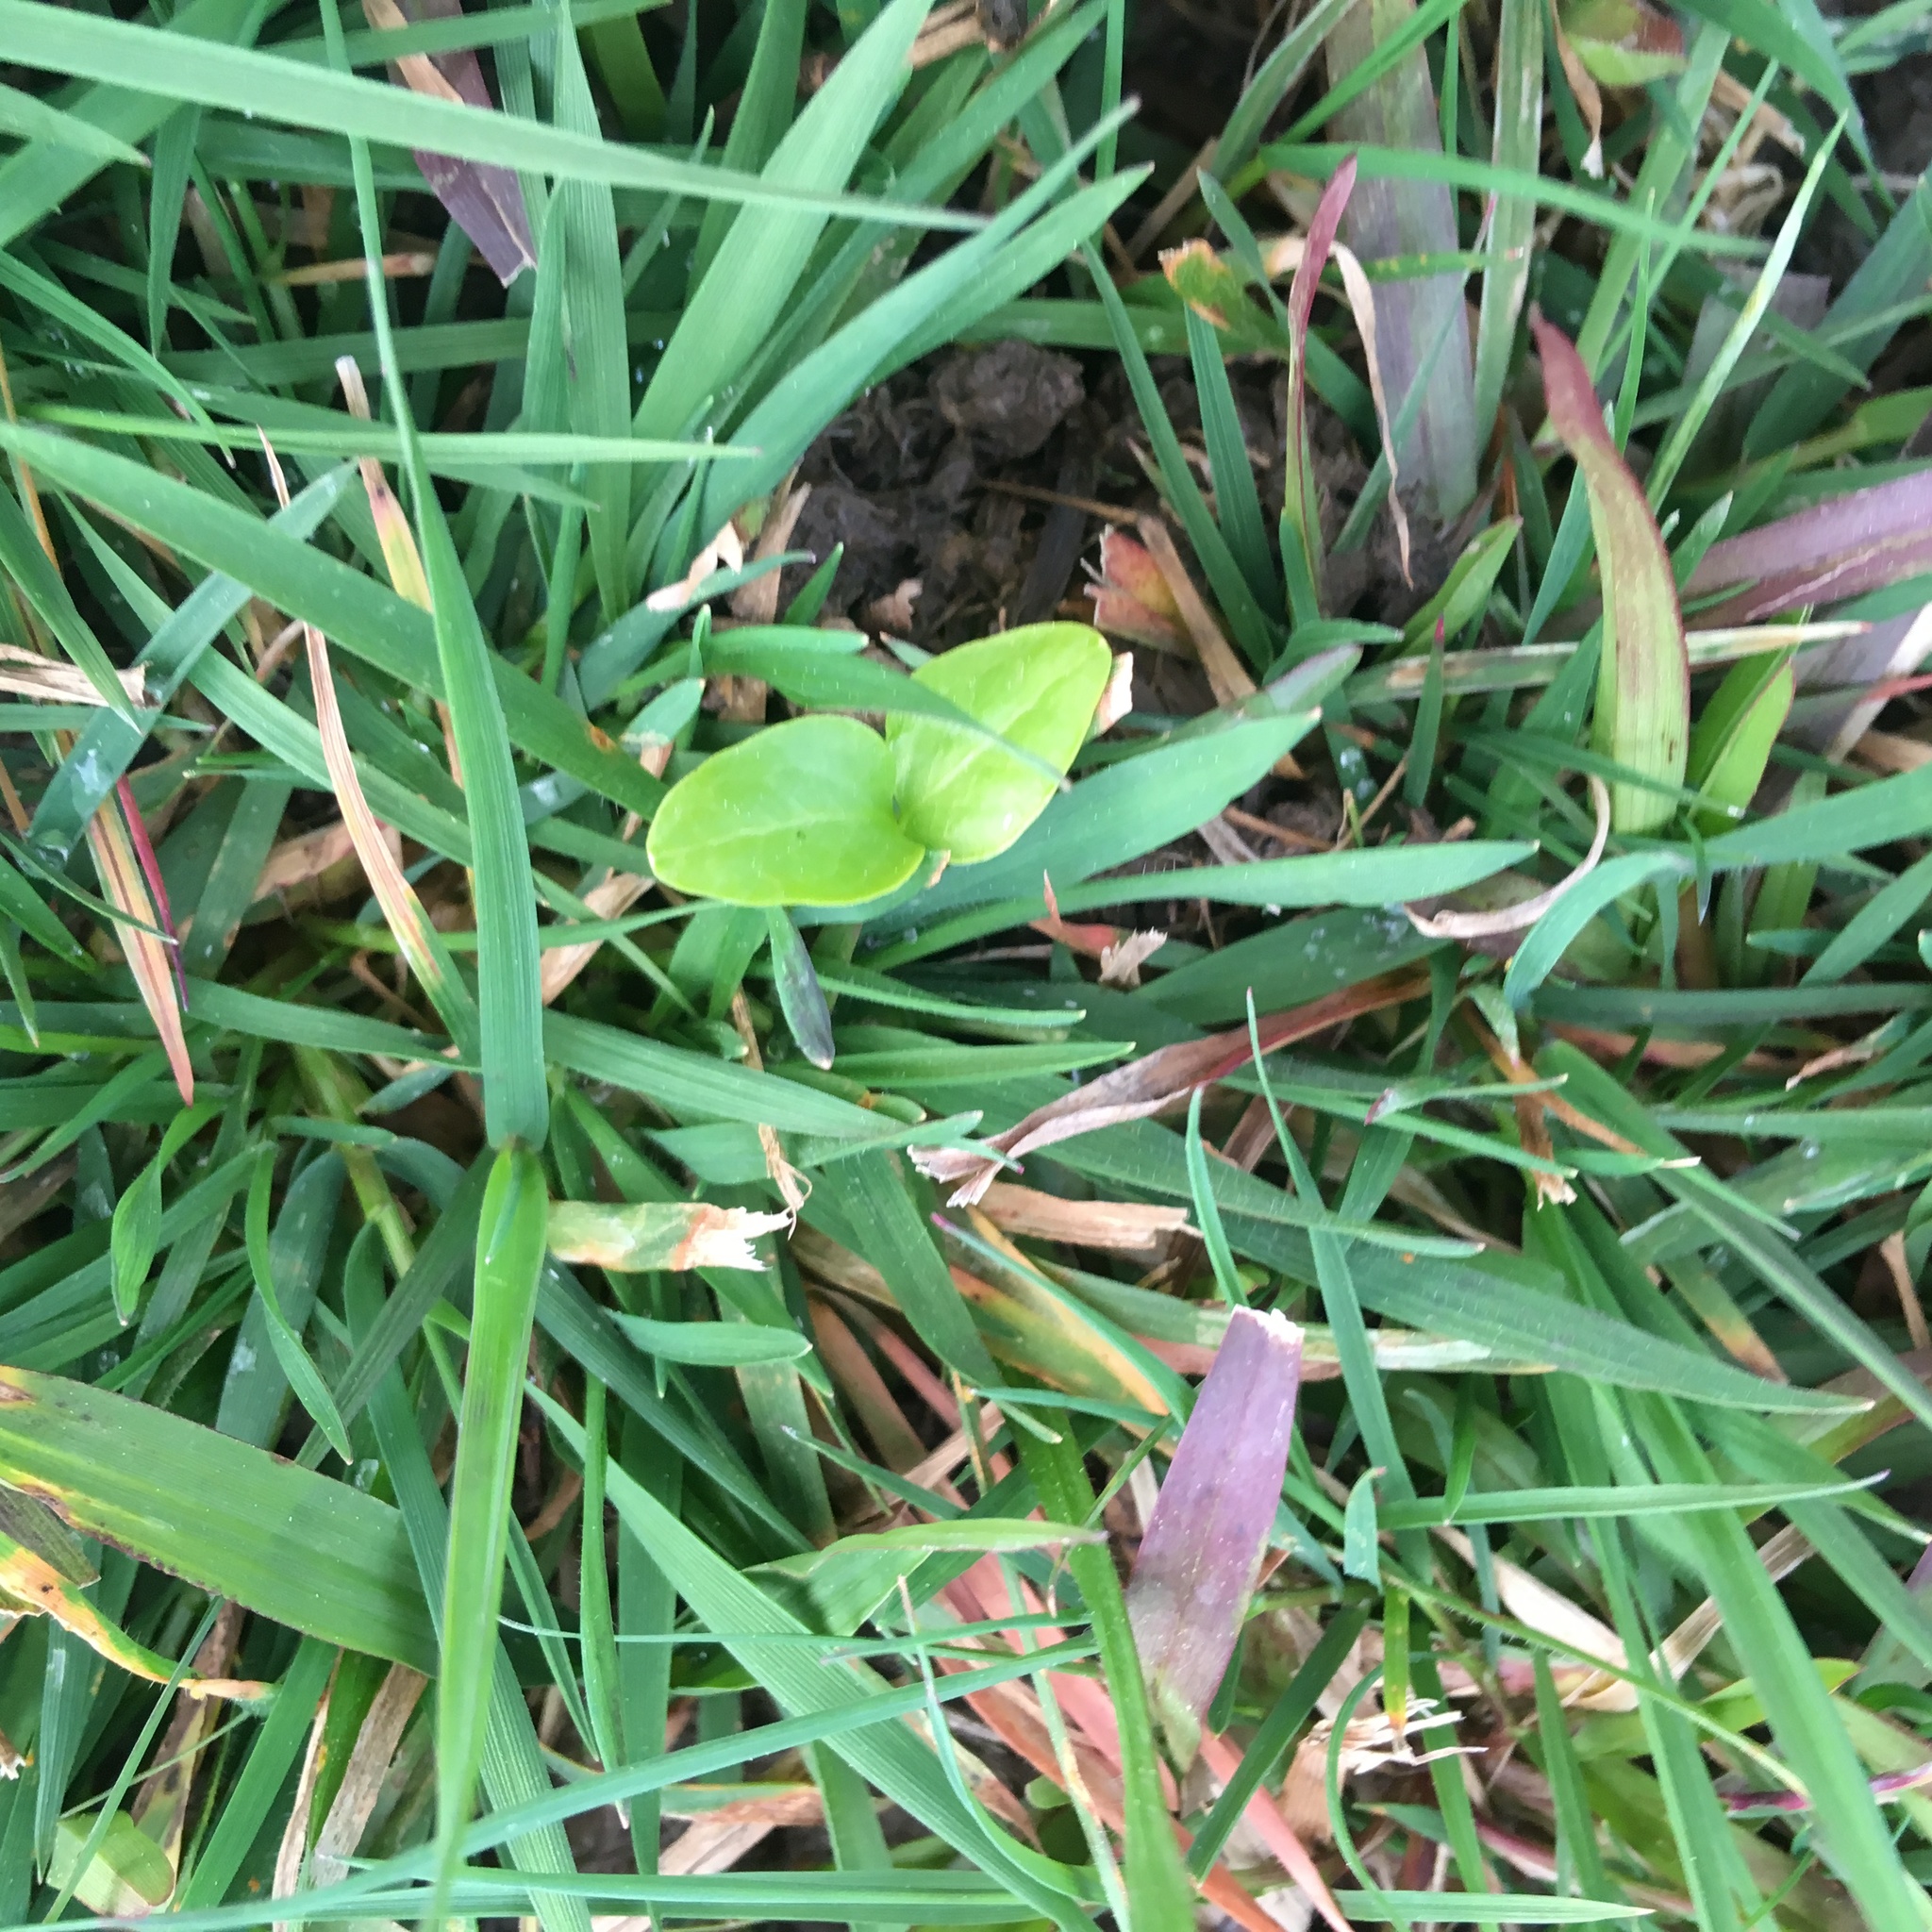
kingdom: Plantae
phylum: Tracheophyta
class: Magnoliopsida
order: Apiales
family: Araliaceae
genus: Hedera
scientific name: Hedera helix
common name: Ivy
